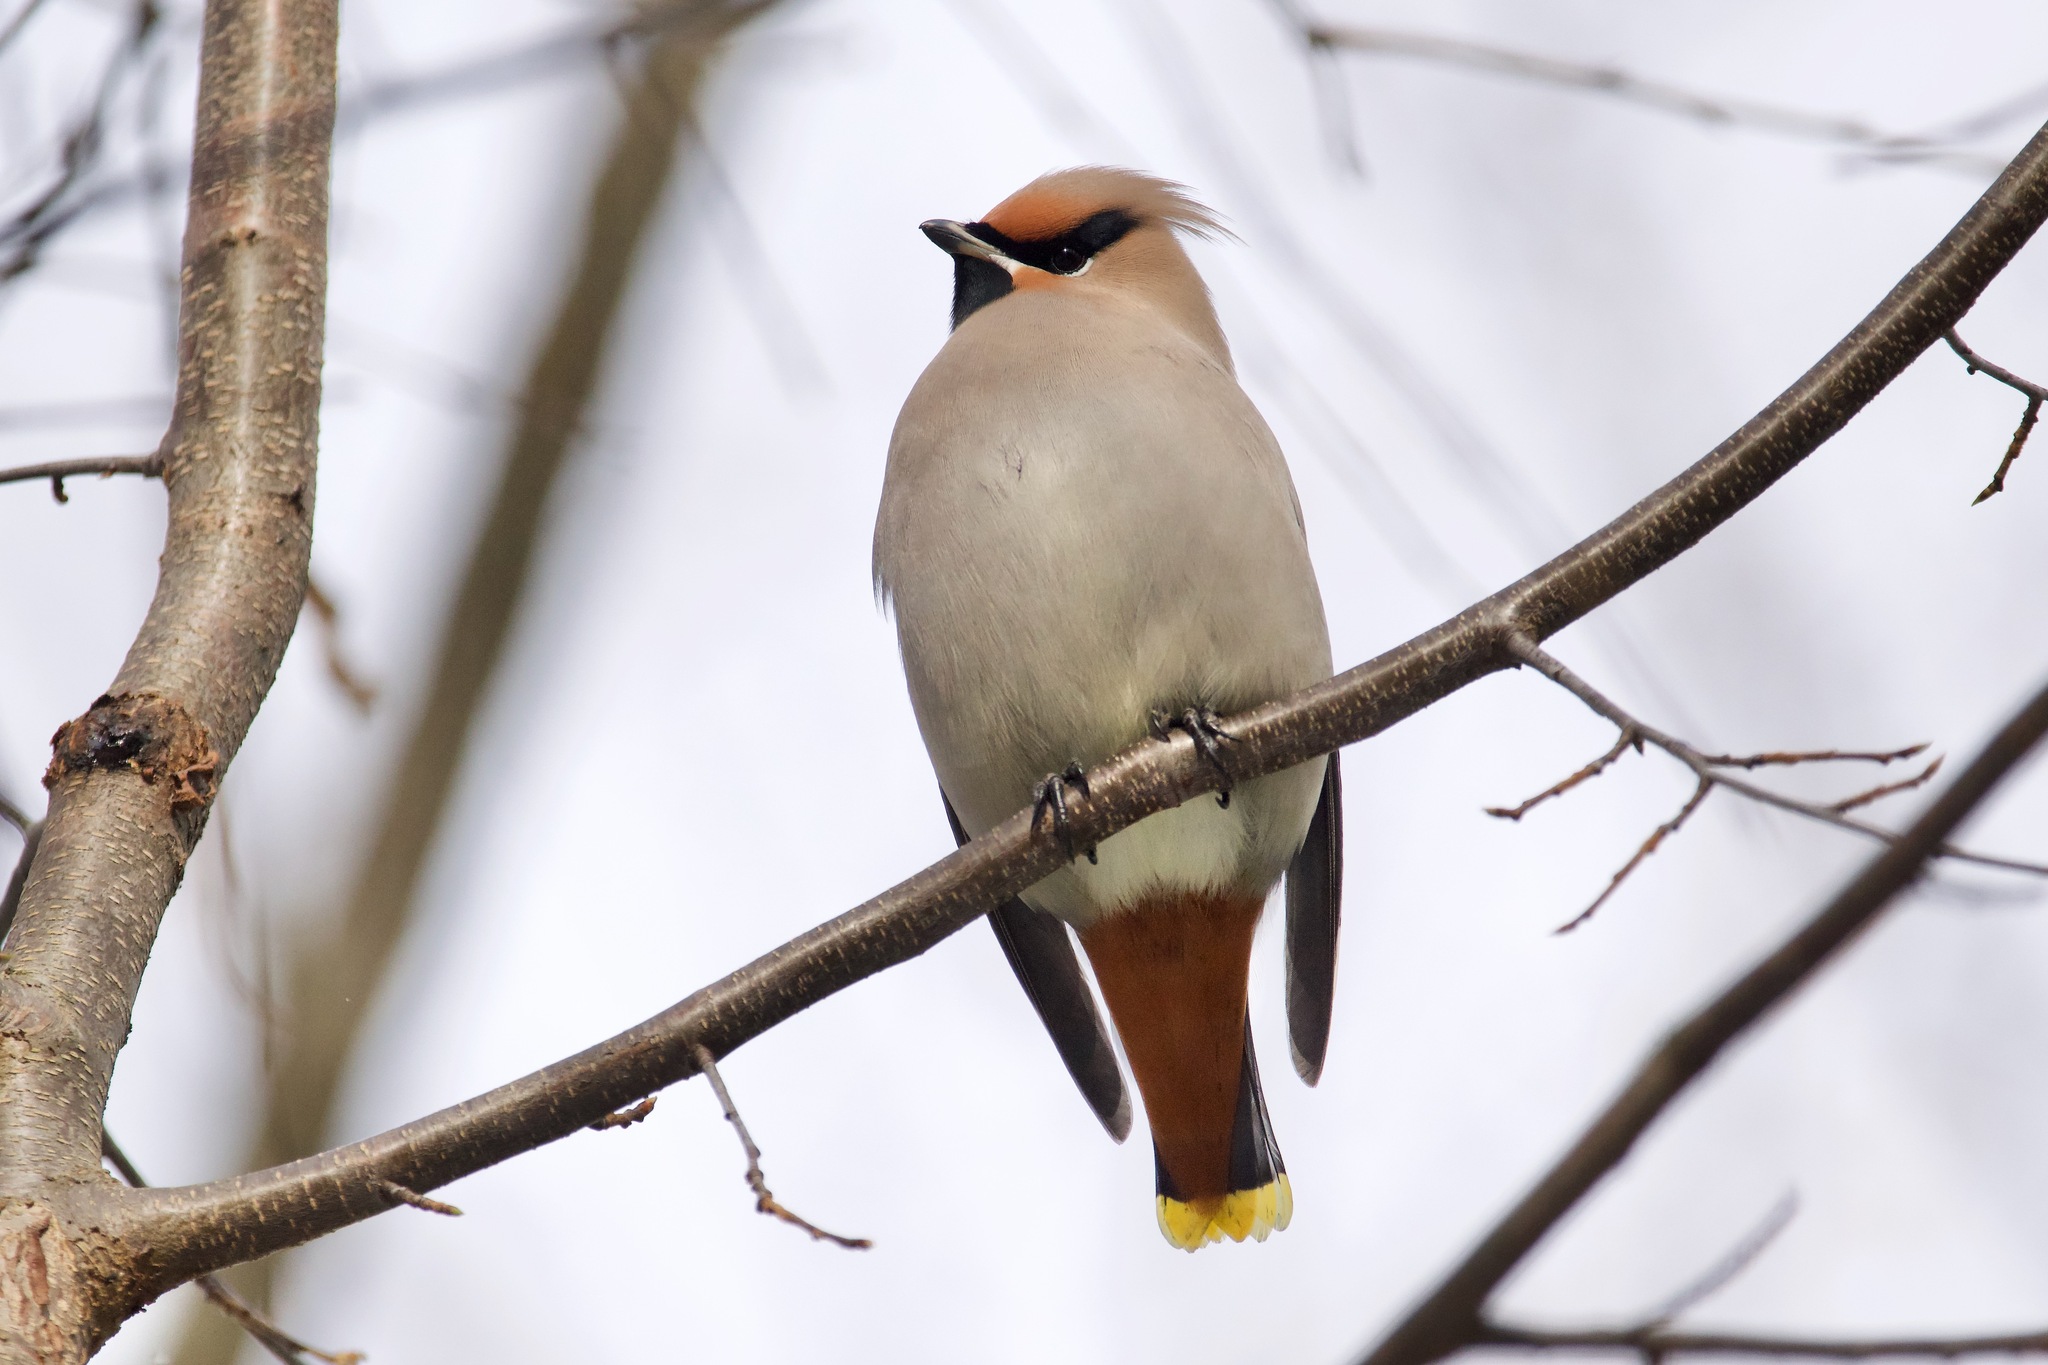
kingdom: Animalia
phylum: Chordata
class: Aves
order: Passeriformes
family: Bombycillidae
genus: Bombycilla
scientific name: Bombycilla garrulus
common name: Bohemian waxwing
